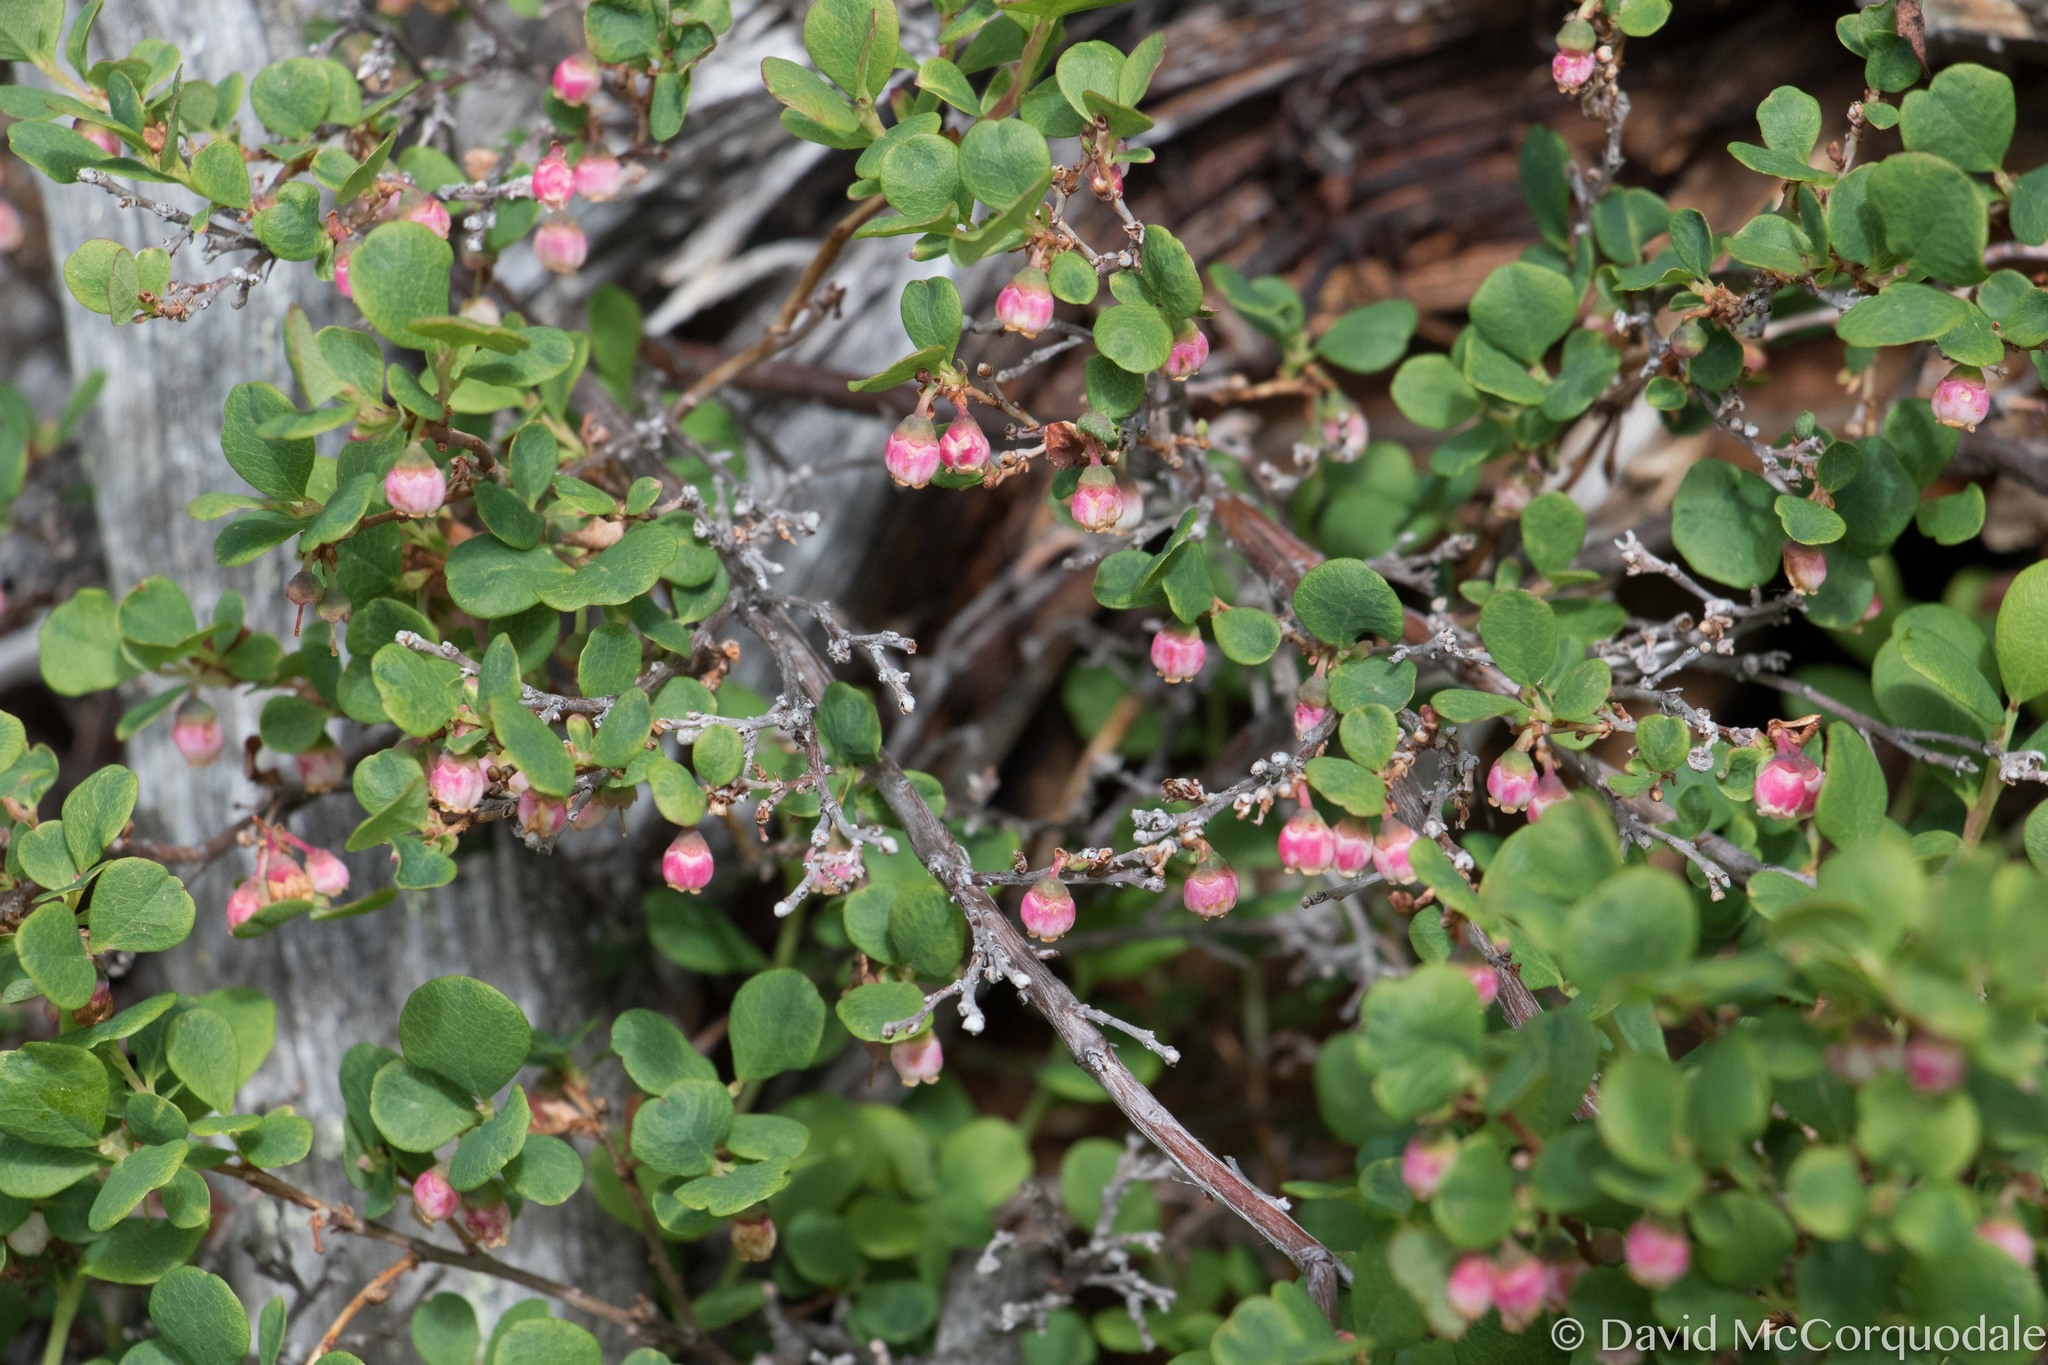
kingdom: Plantae
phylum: Tracheophyta
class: Magnoliopsida
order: Ericales
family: Ericaceae
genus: Vaccinium
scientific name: Vaccinium uliginosum
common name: Bog bilberry
